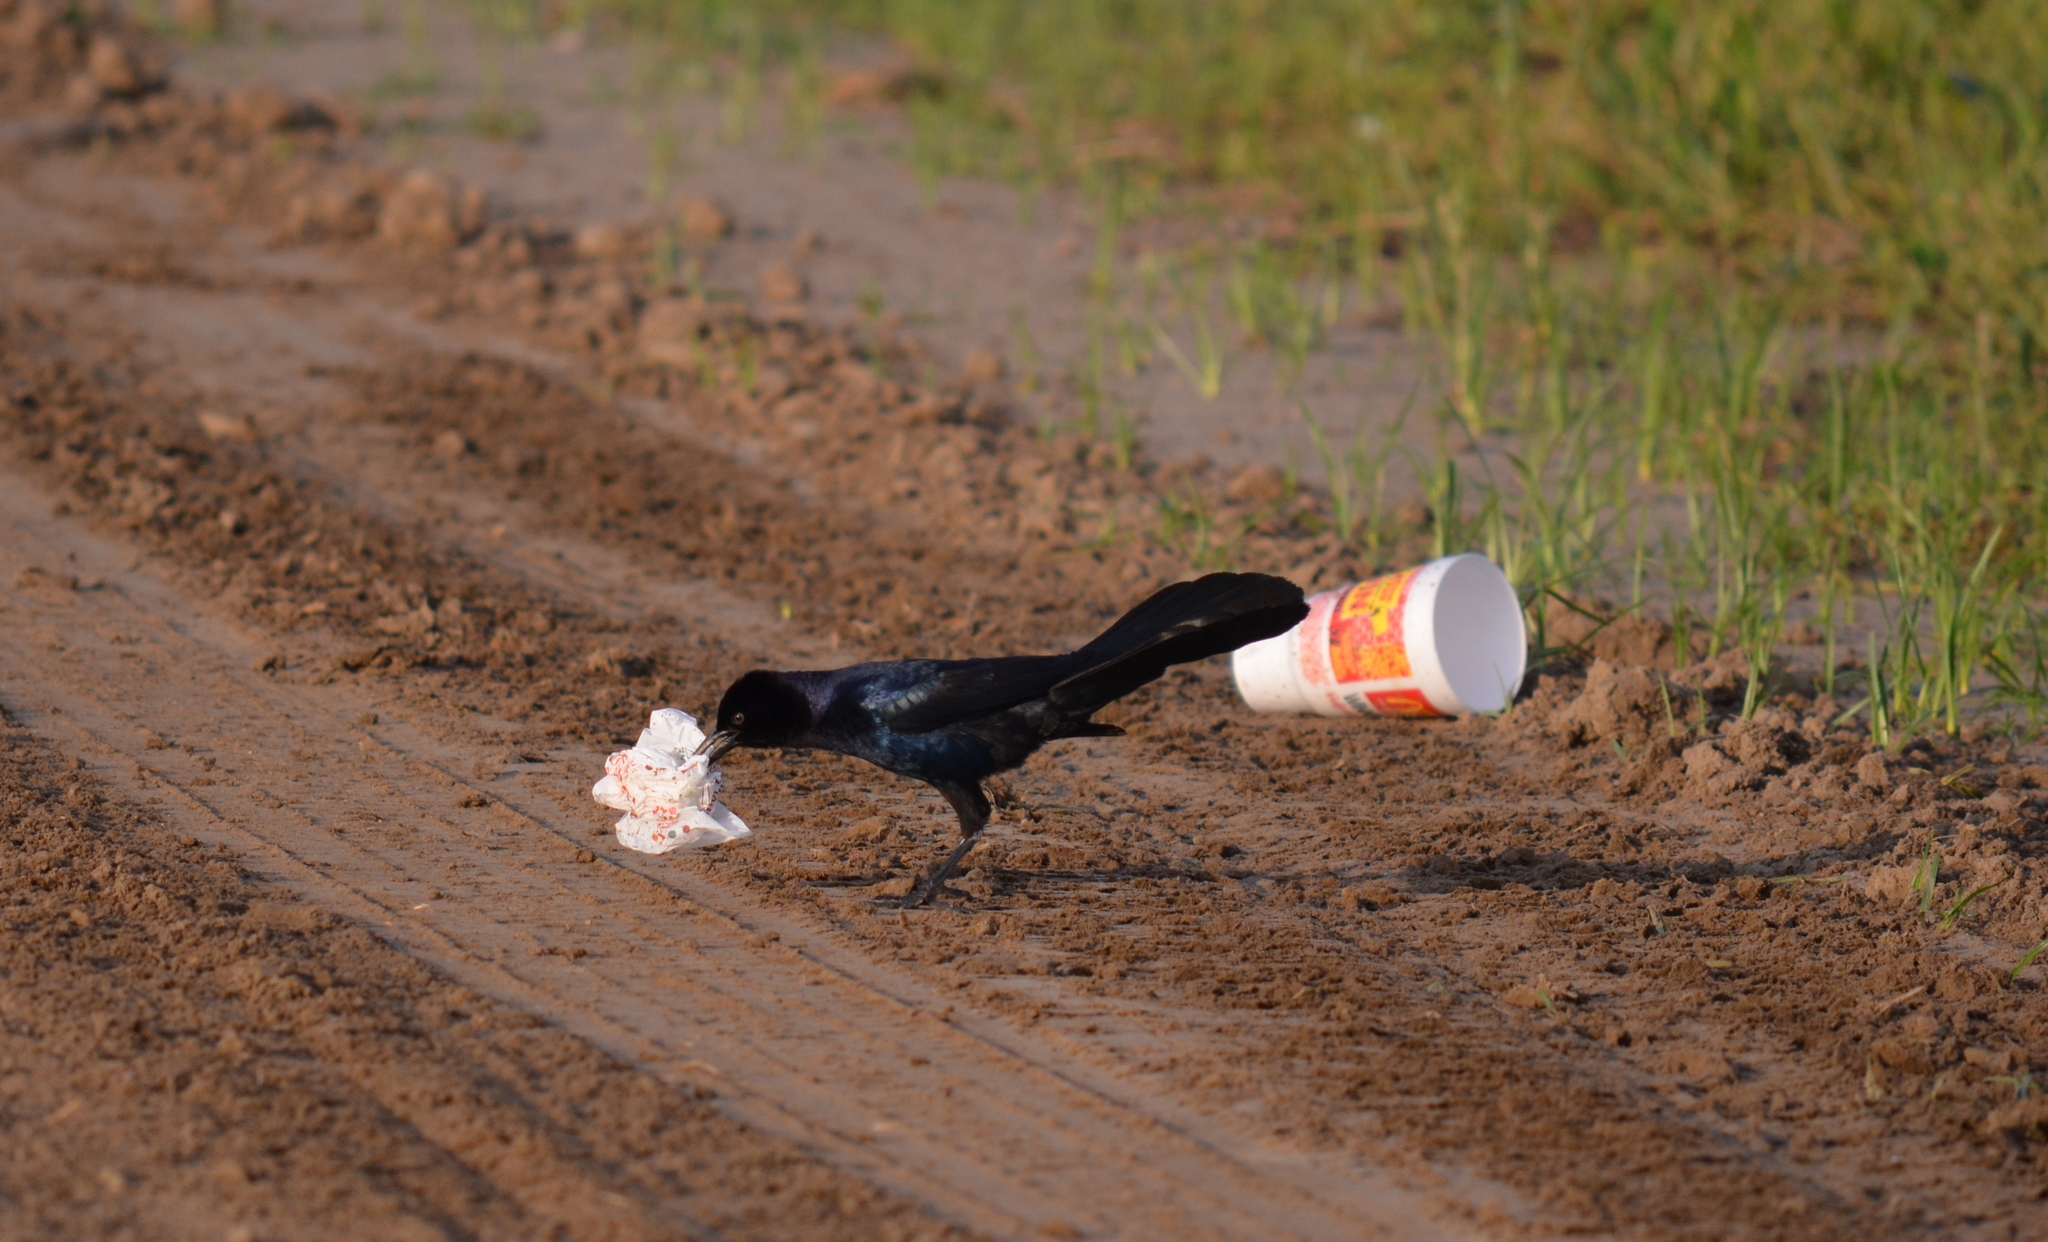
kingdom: Animalia
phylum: Chordata
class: Aves
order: Passeriformes
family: Icteridae
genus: Quiscalus
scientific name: Quiscalus major
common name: Boat-tailed grackle
